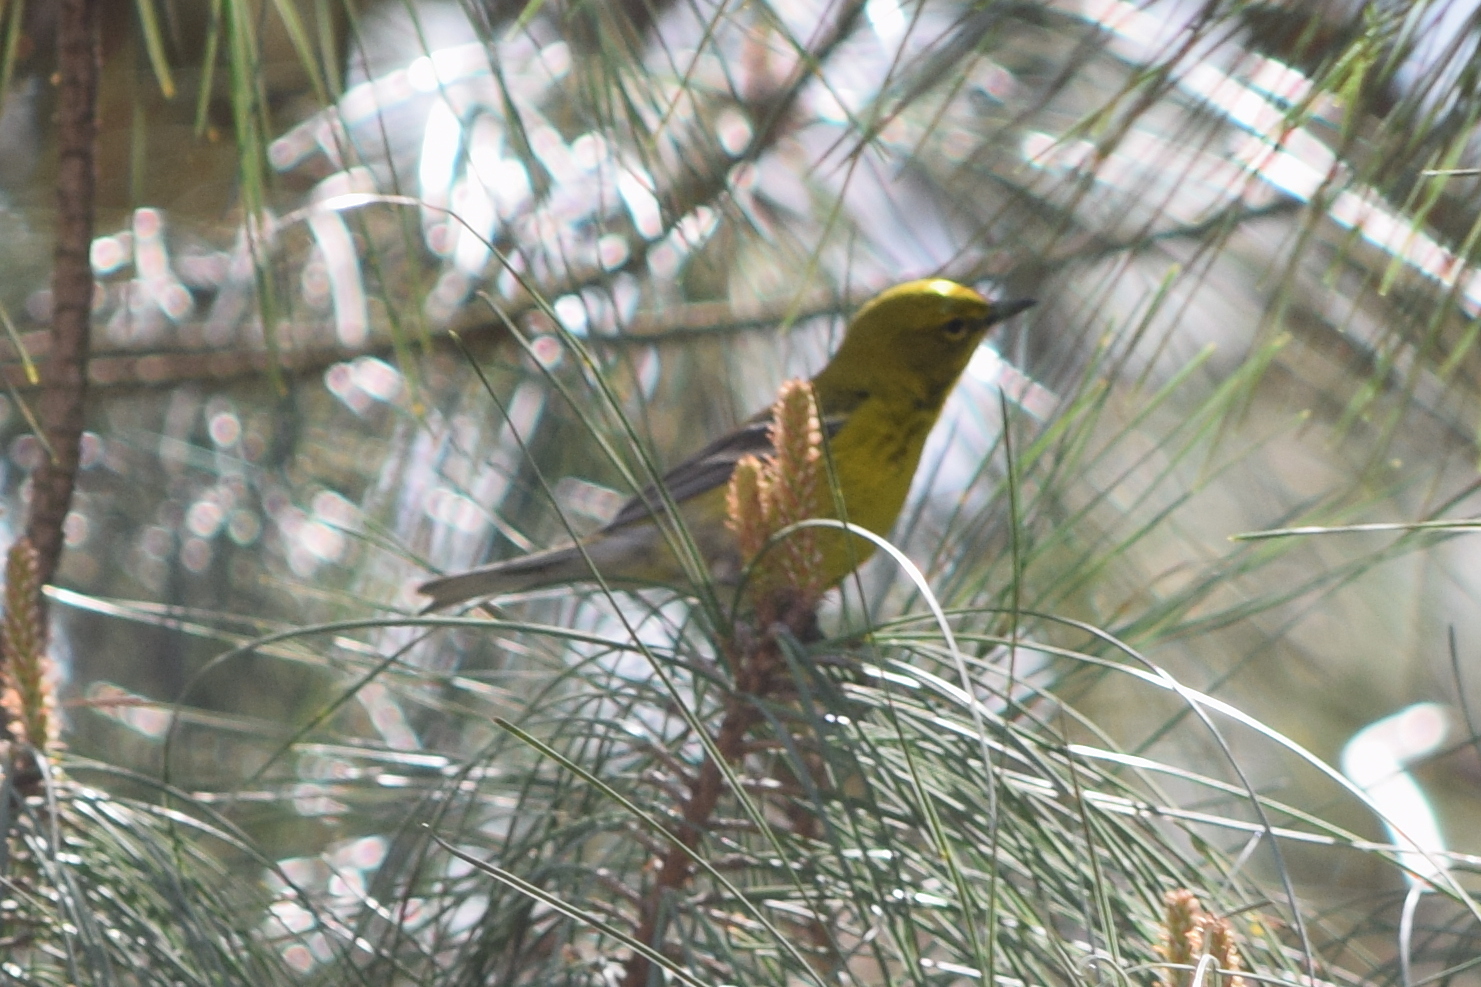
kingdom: Animalia
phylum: Chordata
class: Aves
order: Passeriformes
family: Parulidae
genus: Setophaga
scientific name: Setophaga pinus
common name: Pine warbler
